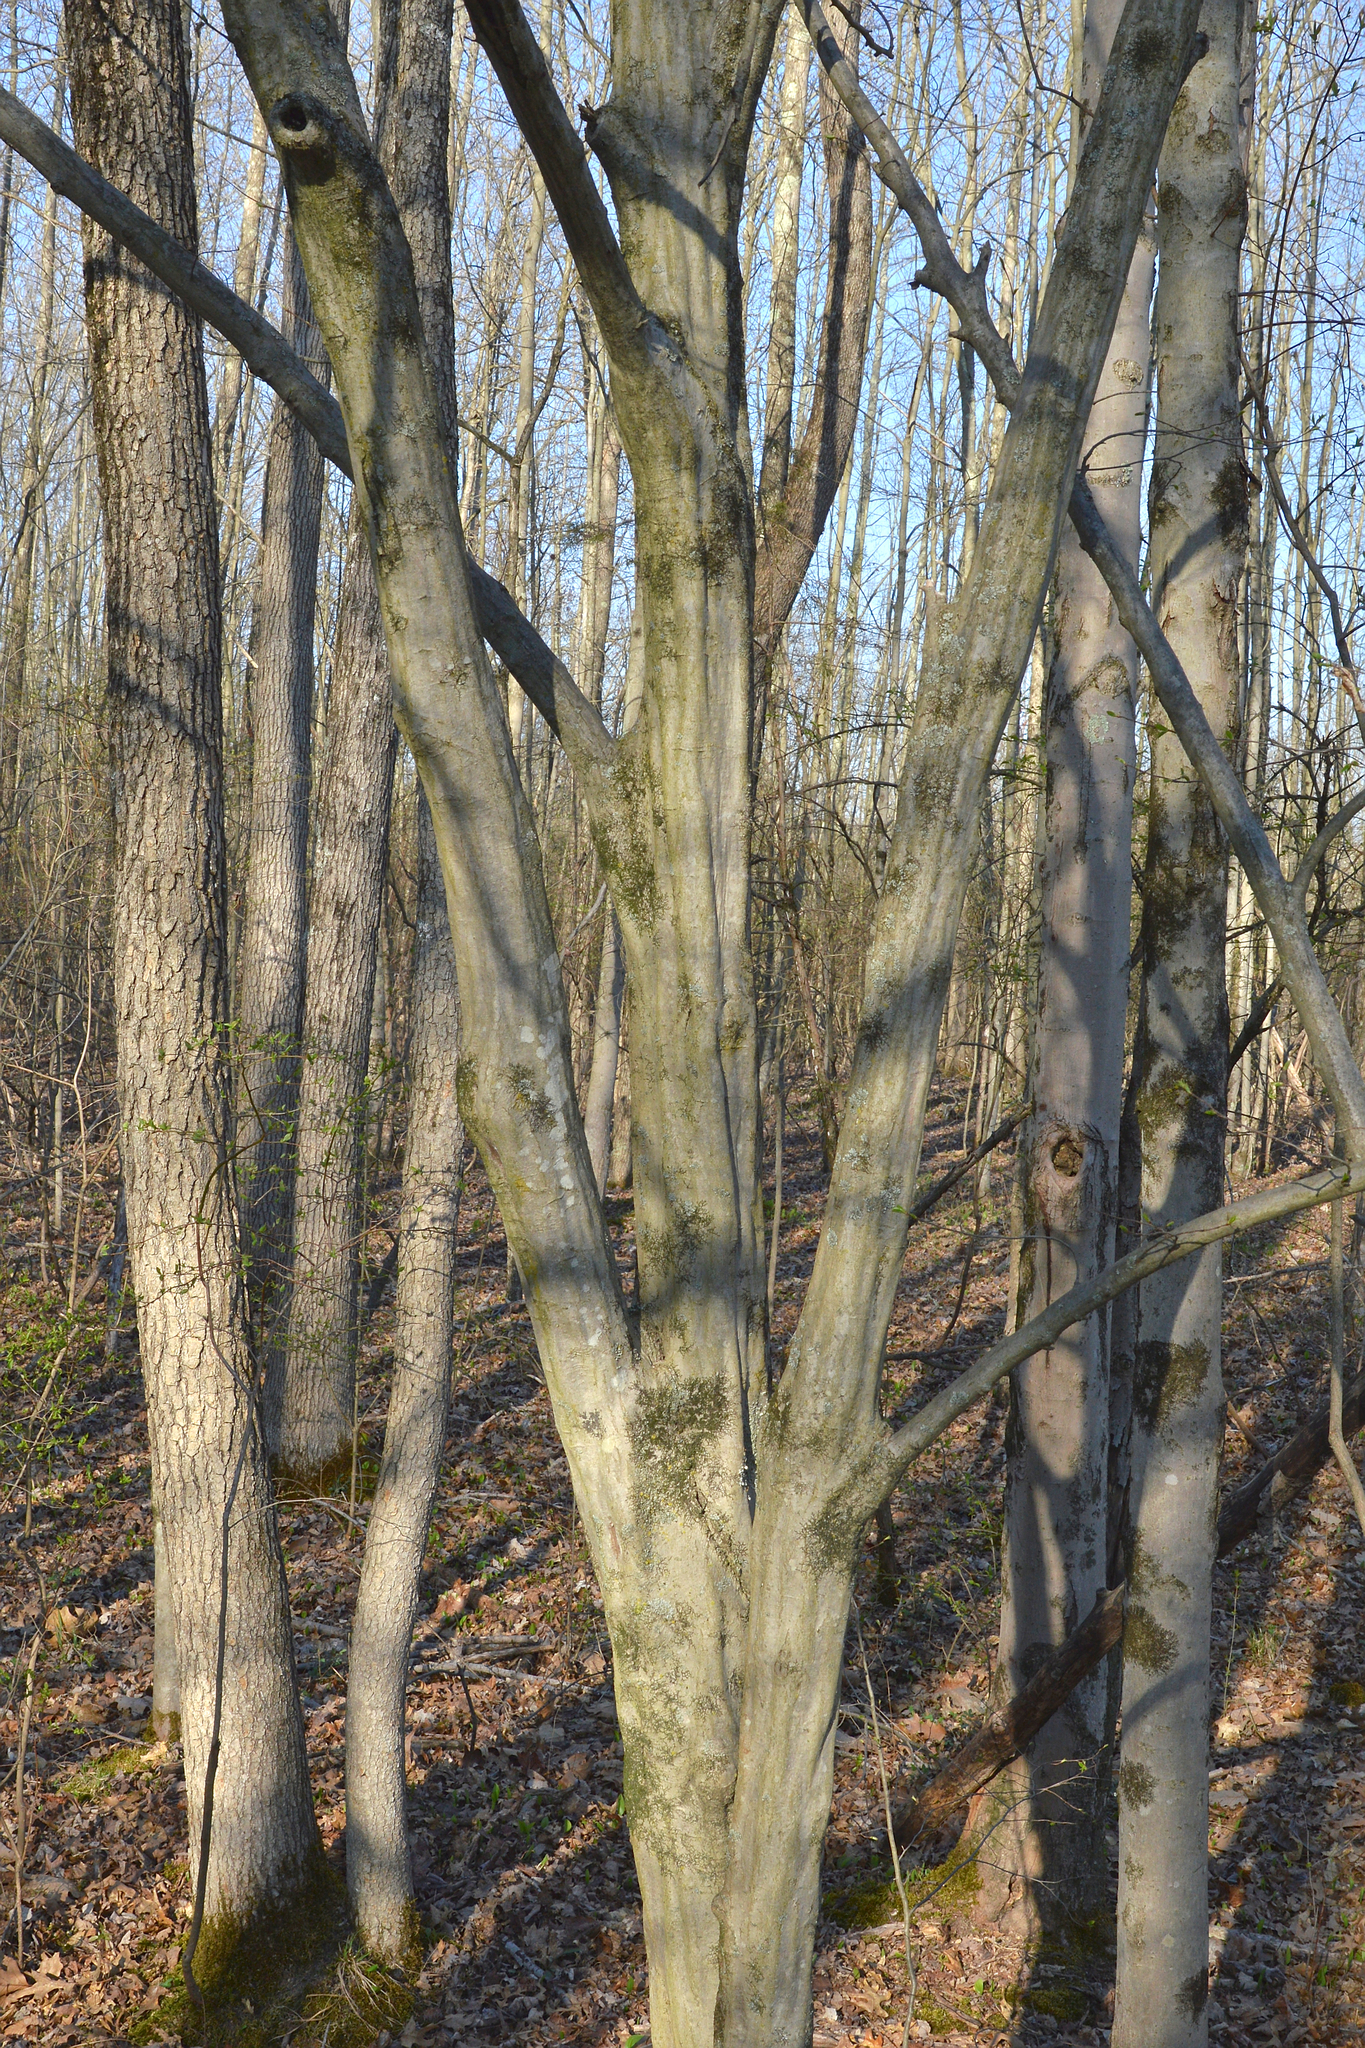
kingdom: Plantae
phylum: Tracheophyta
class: Magnoliopsida
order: Fagales
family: Betulaceae
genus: Carpinus
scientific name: Carpinus caroliniana
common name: American hornbeam
